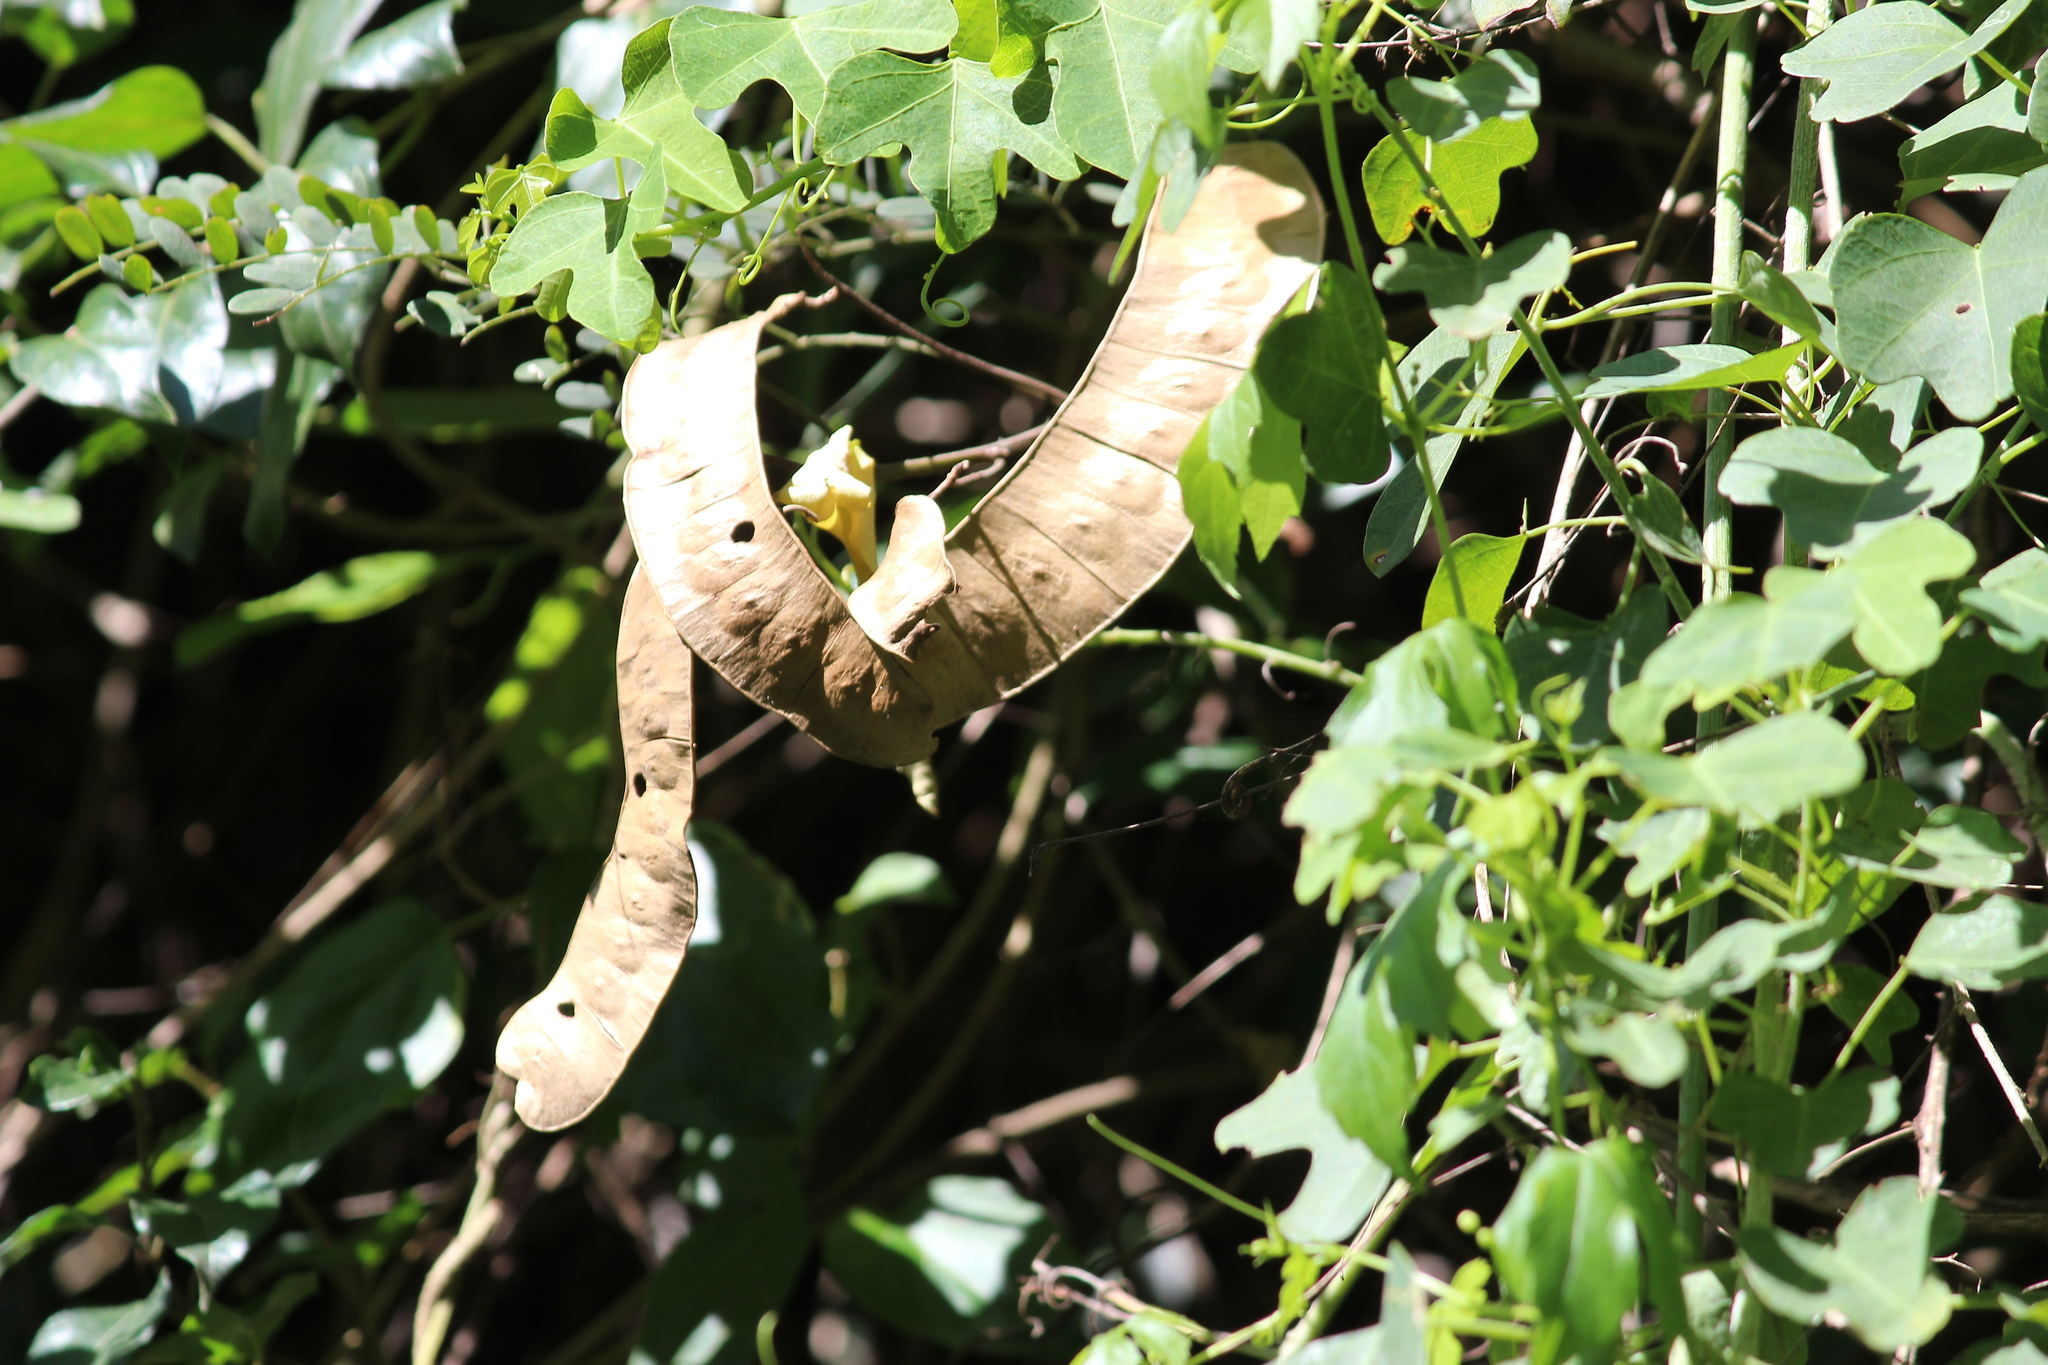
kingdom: Plantae
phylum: Tracheophyta
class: Magnoliopsida
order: Fabales
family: Fabaceae
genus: Adenopodia
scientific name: Adenopodia spicata
